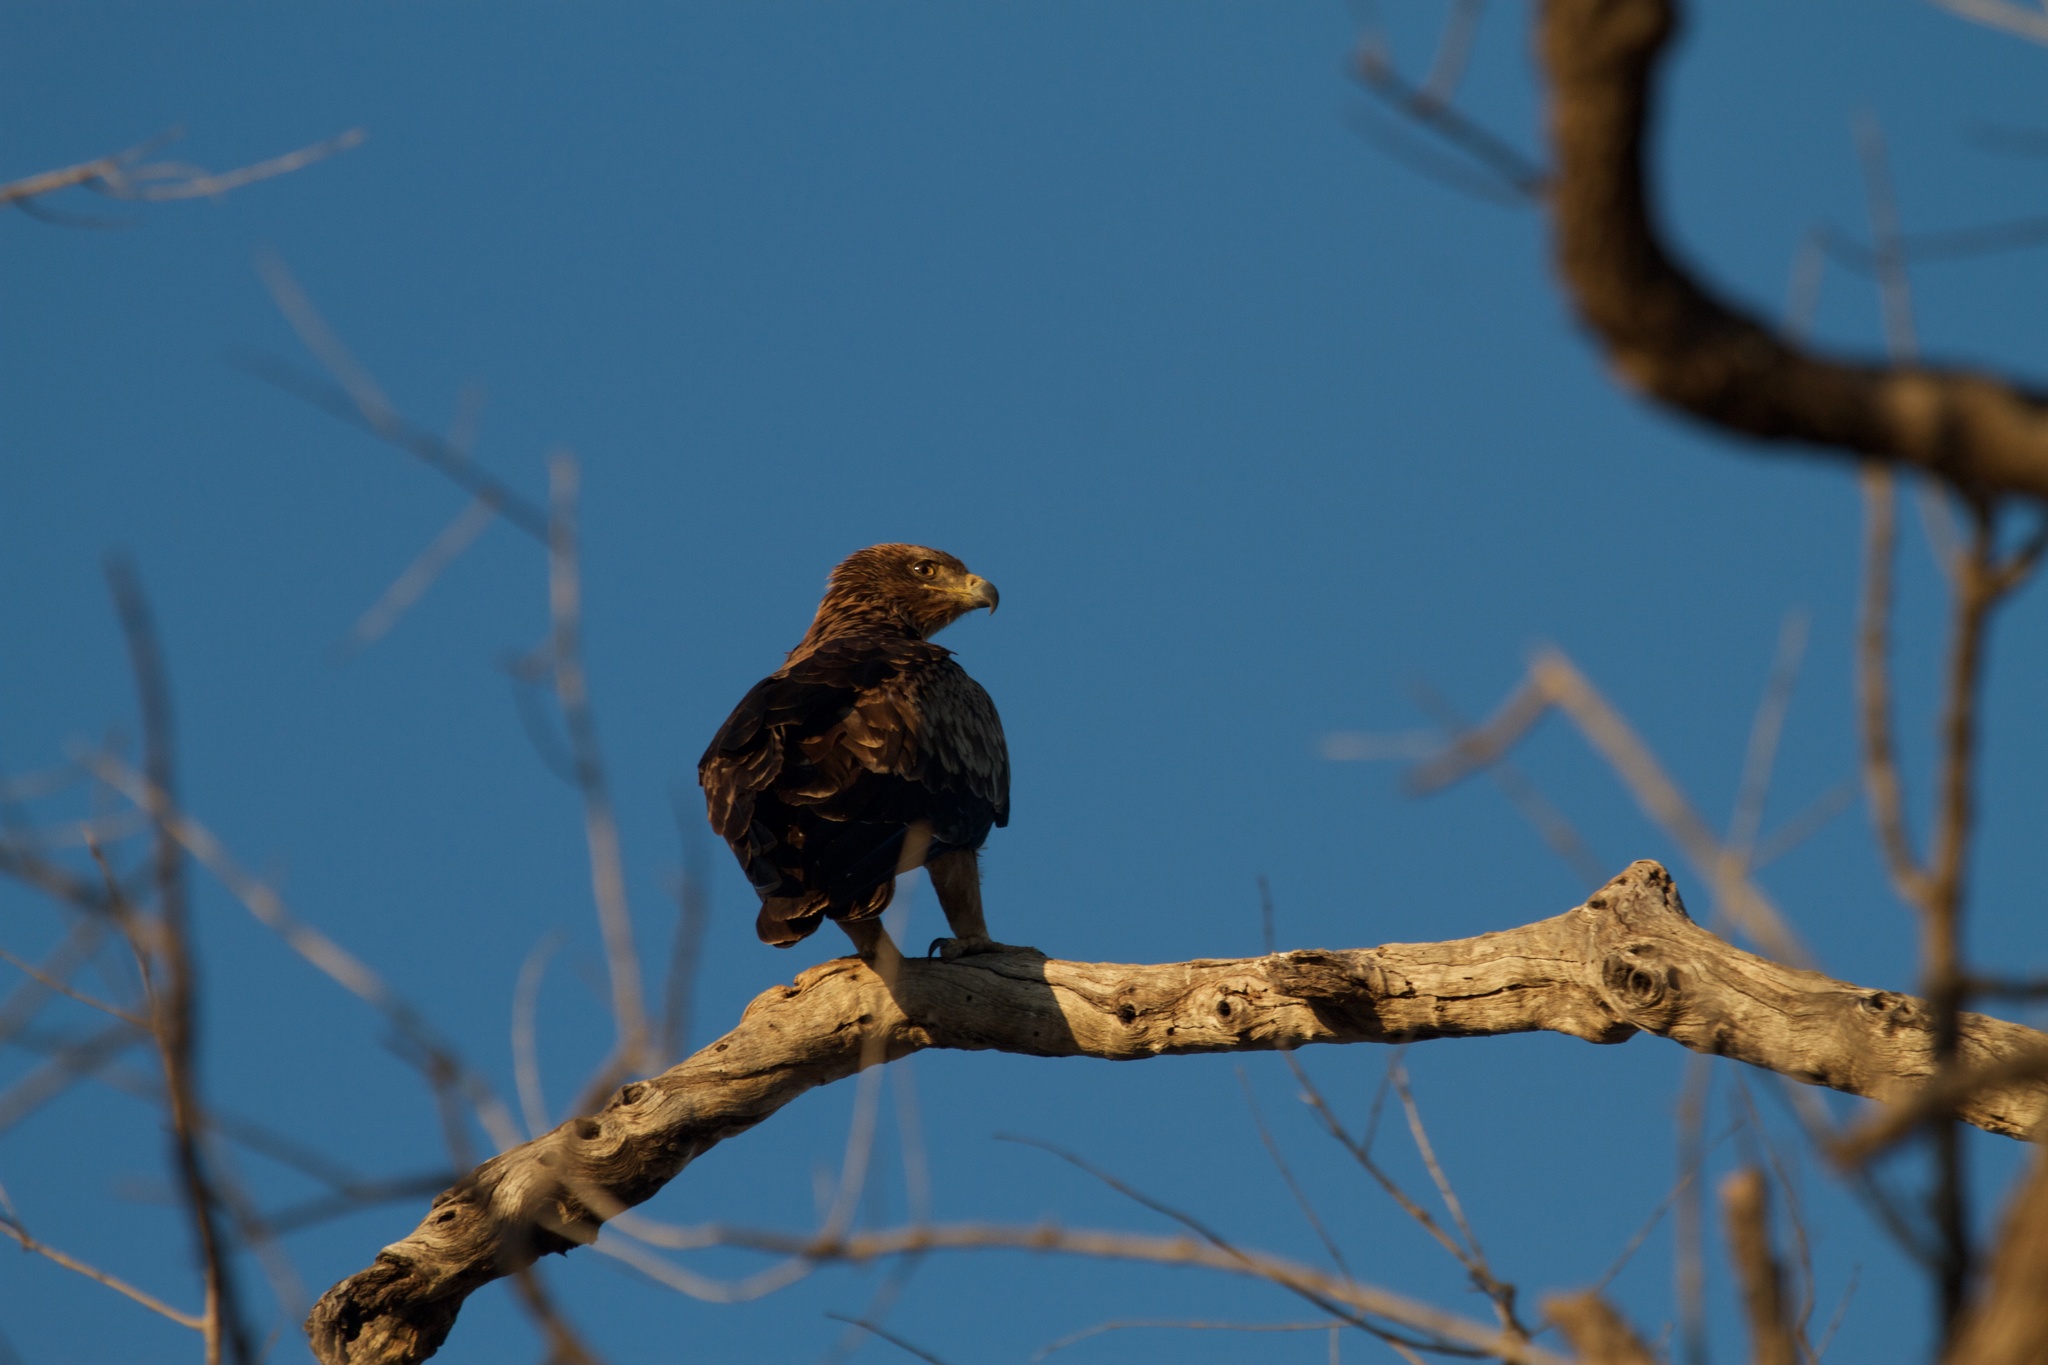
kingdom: Animalia
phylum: Chordata
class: Aves
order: Accipitriformes
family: Accipitridae
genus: Aquila
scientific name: Aquila rapax
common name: Tawny eagle
